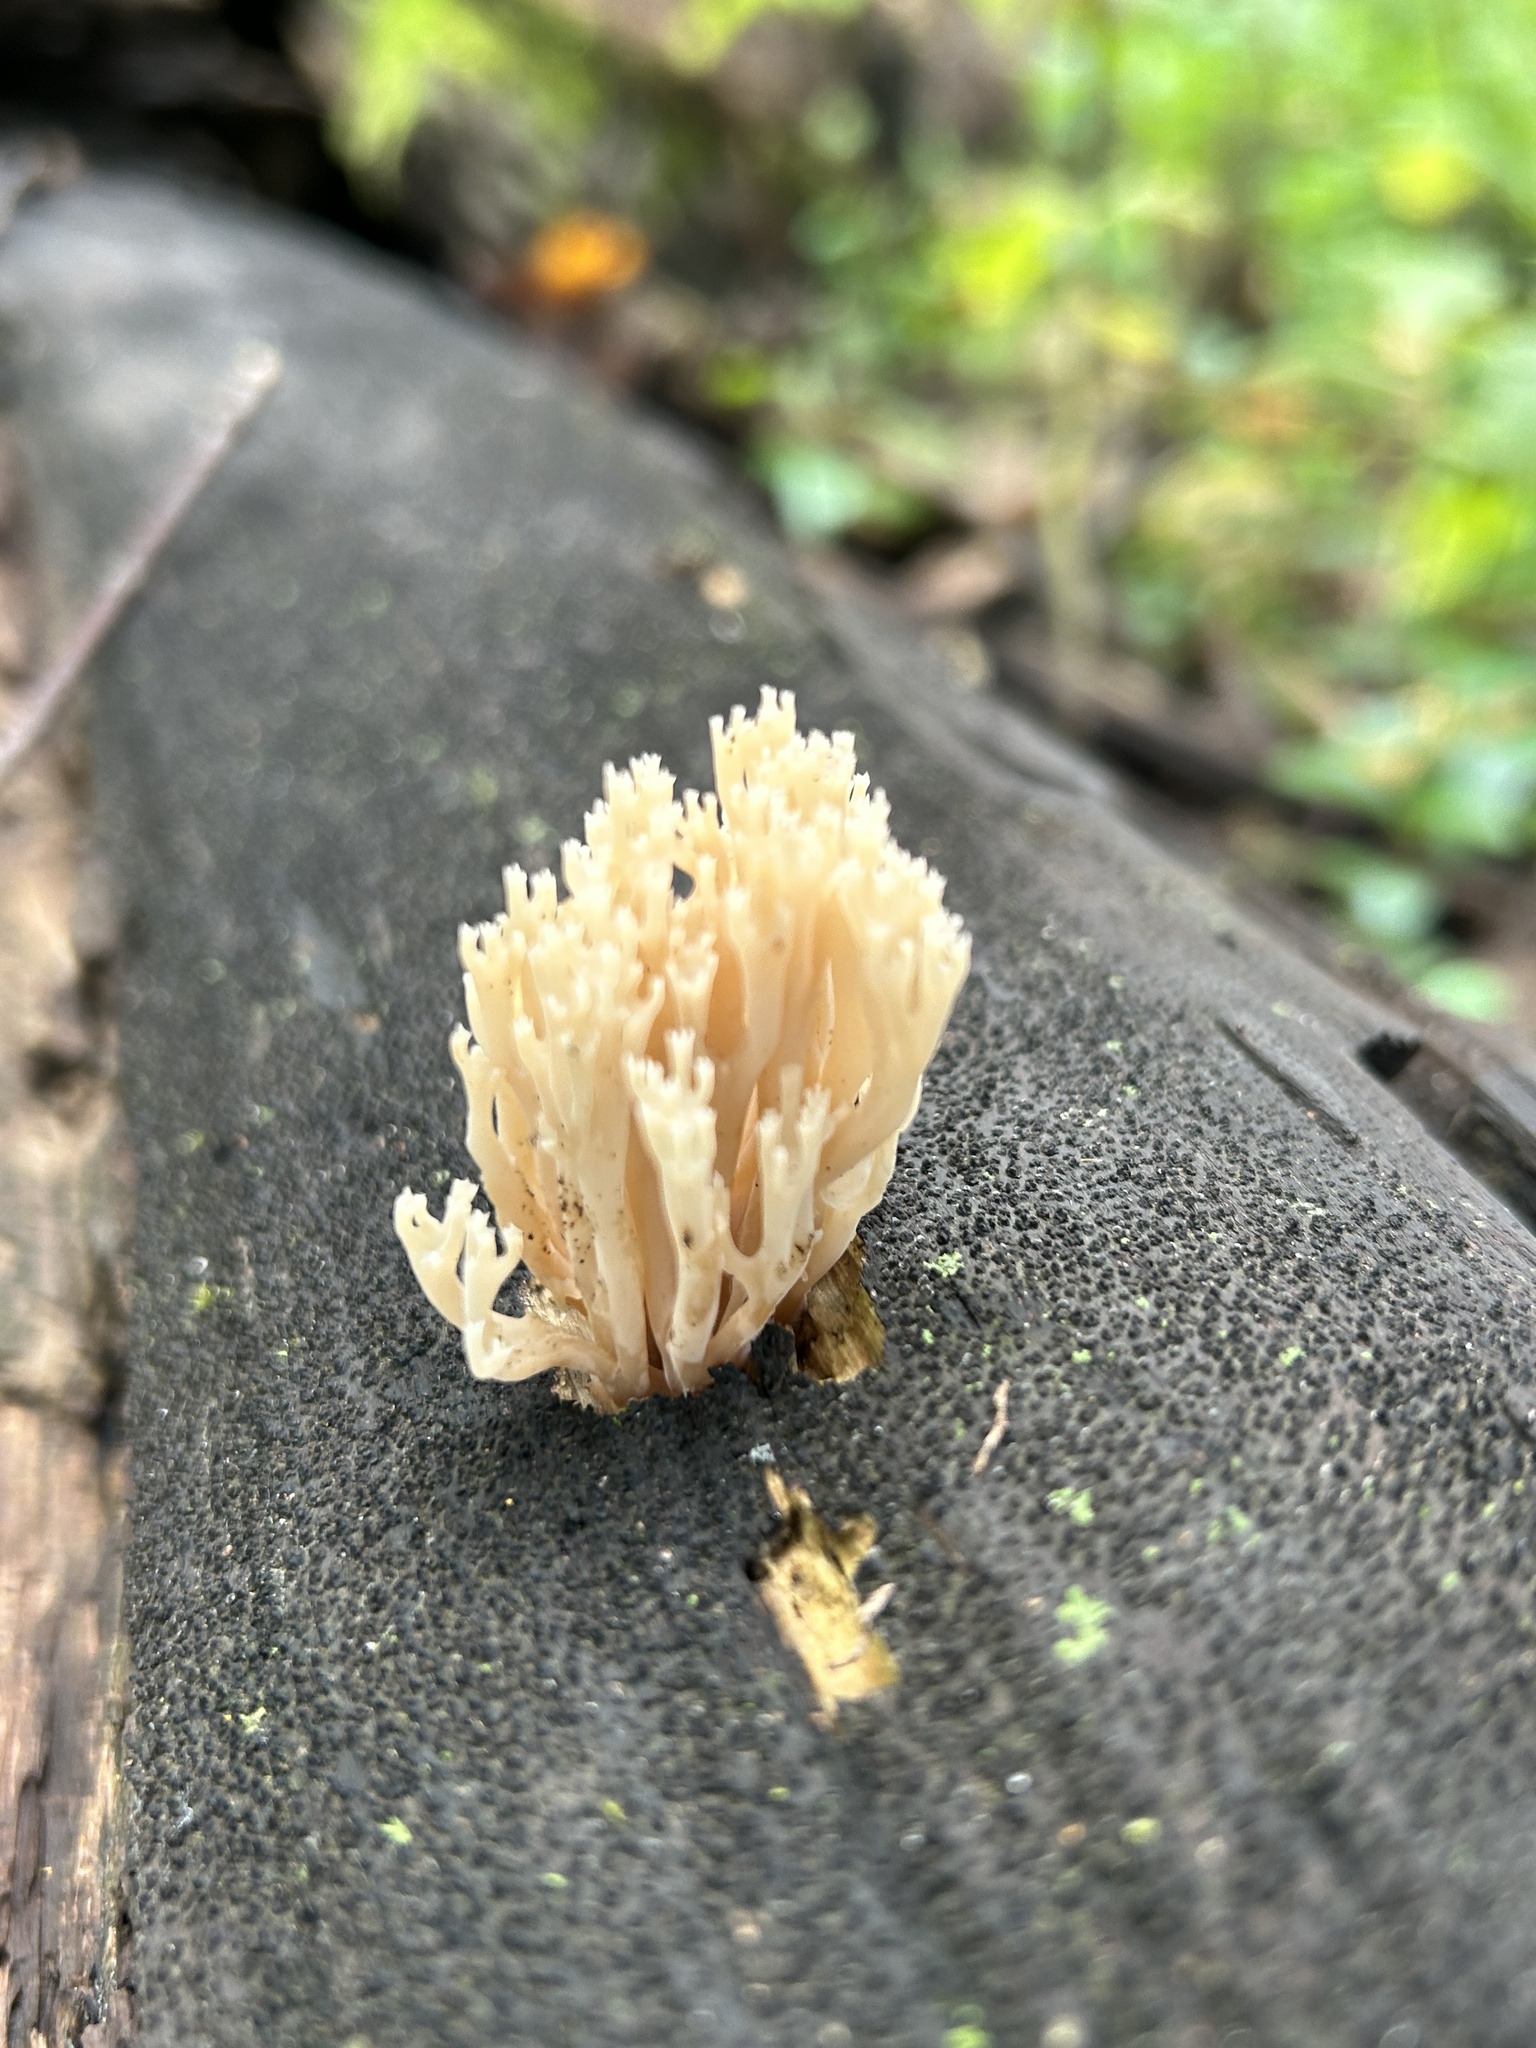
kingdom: Fungi
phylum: Basidiomycota
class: Agaricomycetes
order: Russulales
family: Auriscalpiaceae
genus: Artomyces
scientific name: Artomyces pyxidatus
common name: Crown-tipped coral fungus
